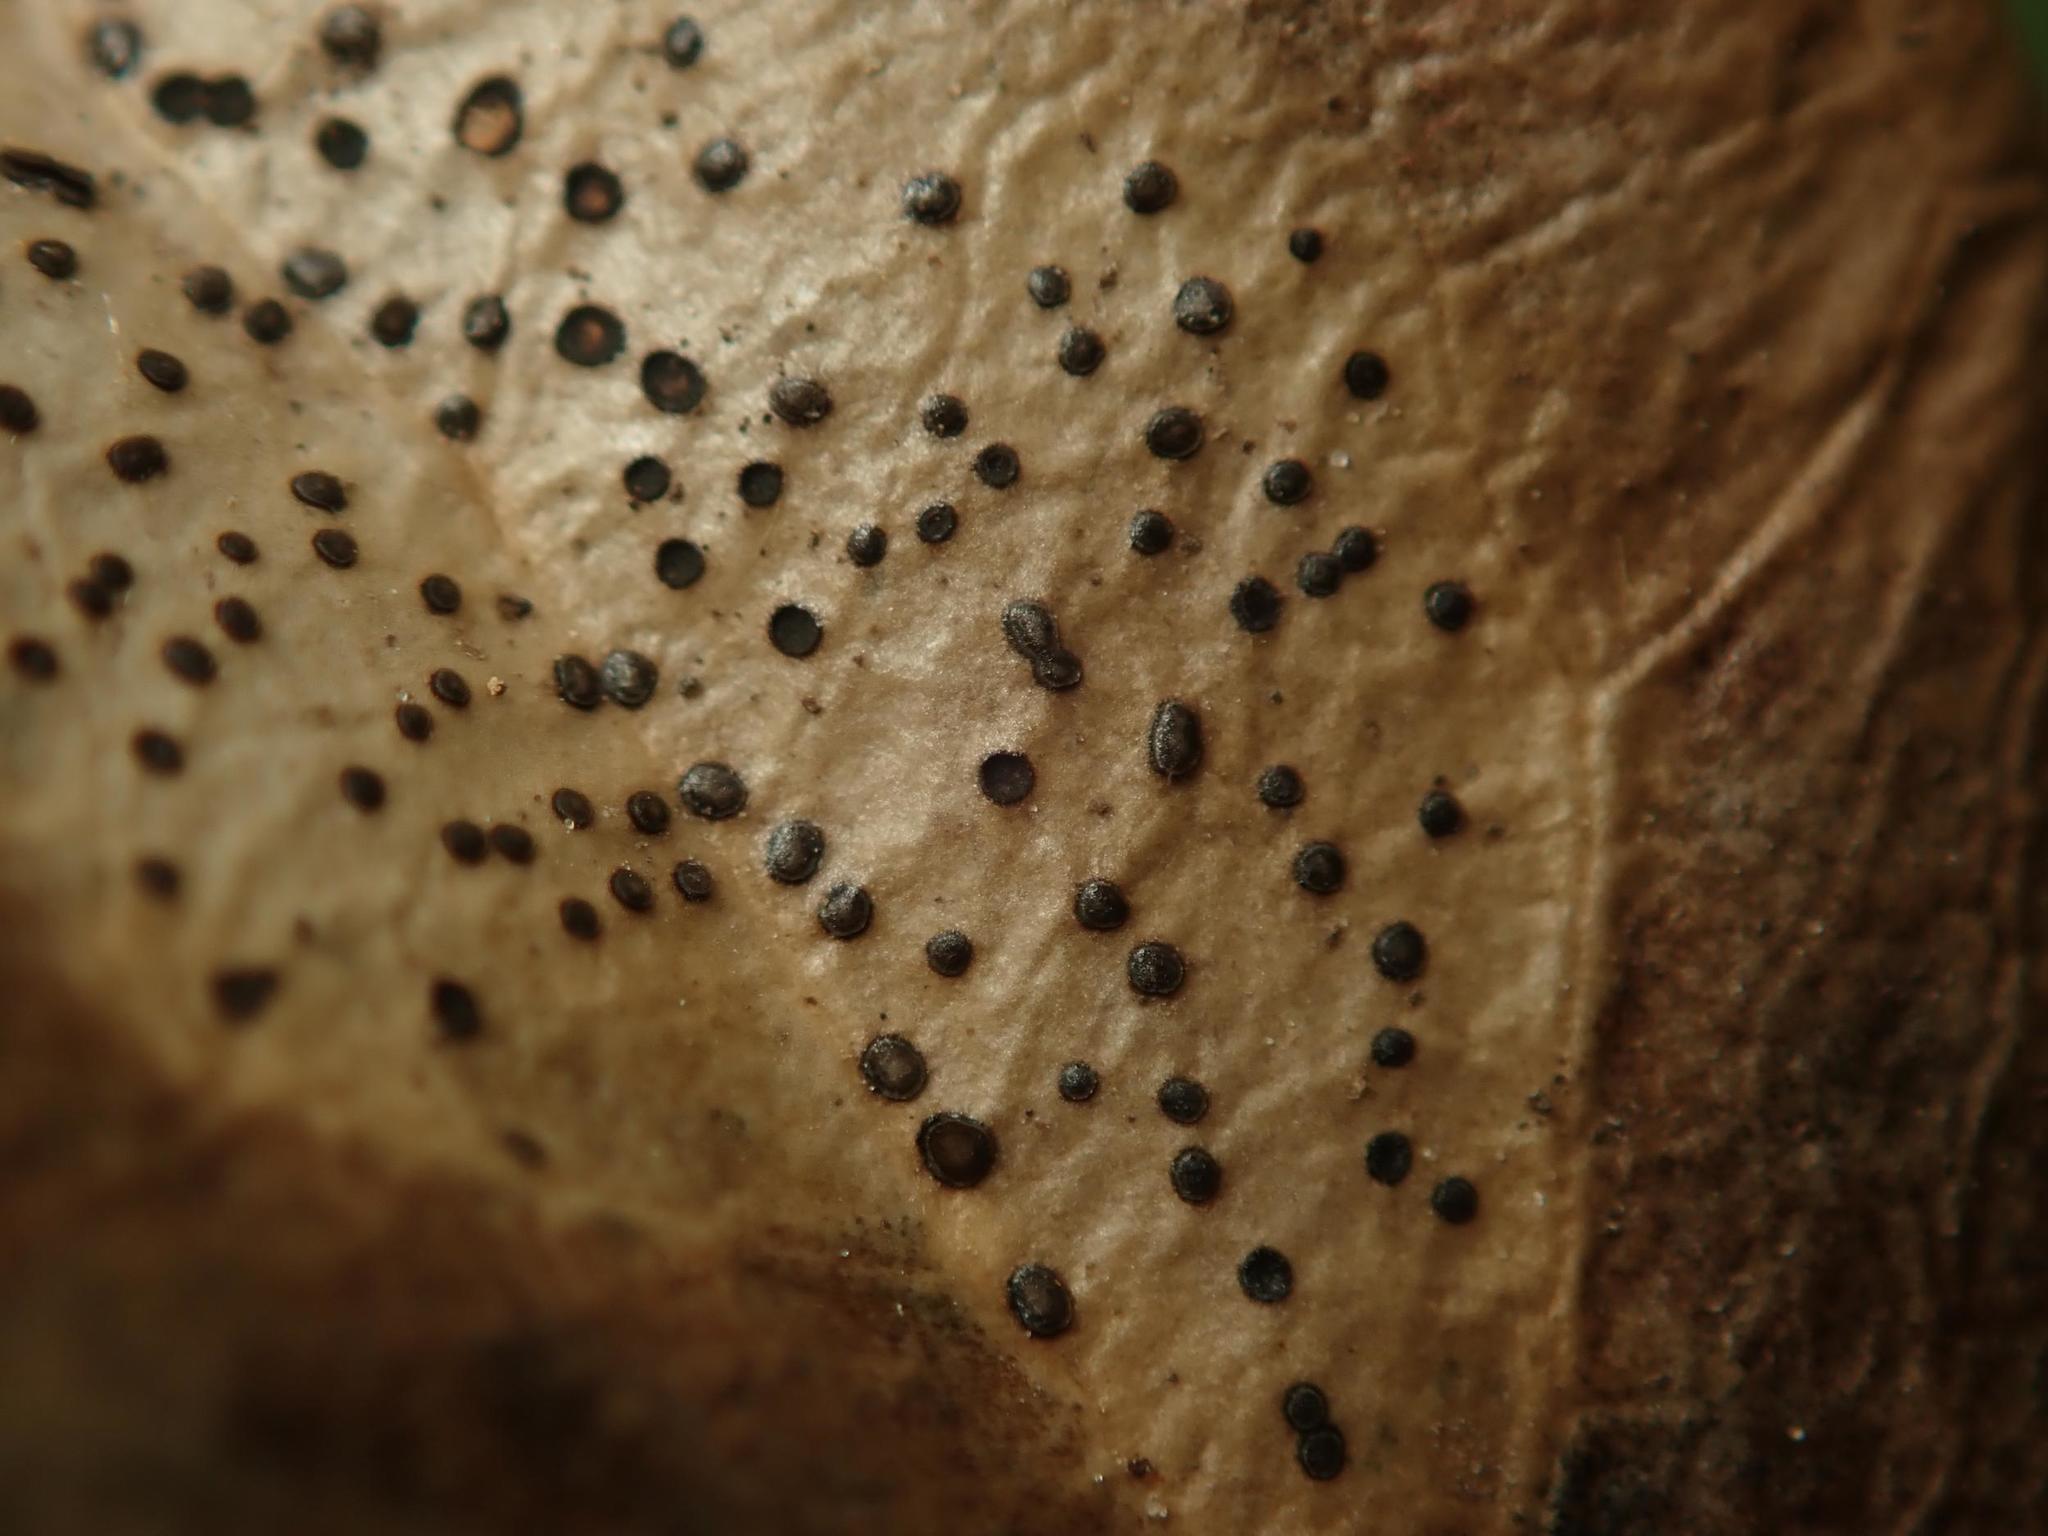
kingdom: Fungi
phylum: Ascomycota
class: Leotiomycetes
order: Helotiales
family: Cenangiaceae
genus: Trochila
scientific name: Trochila ilicina
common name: Holly speckle
